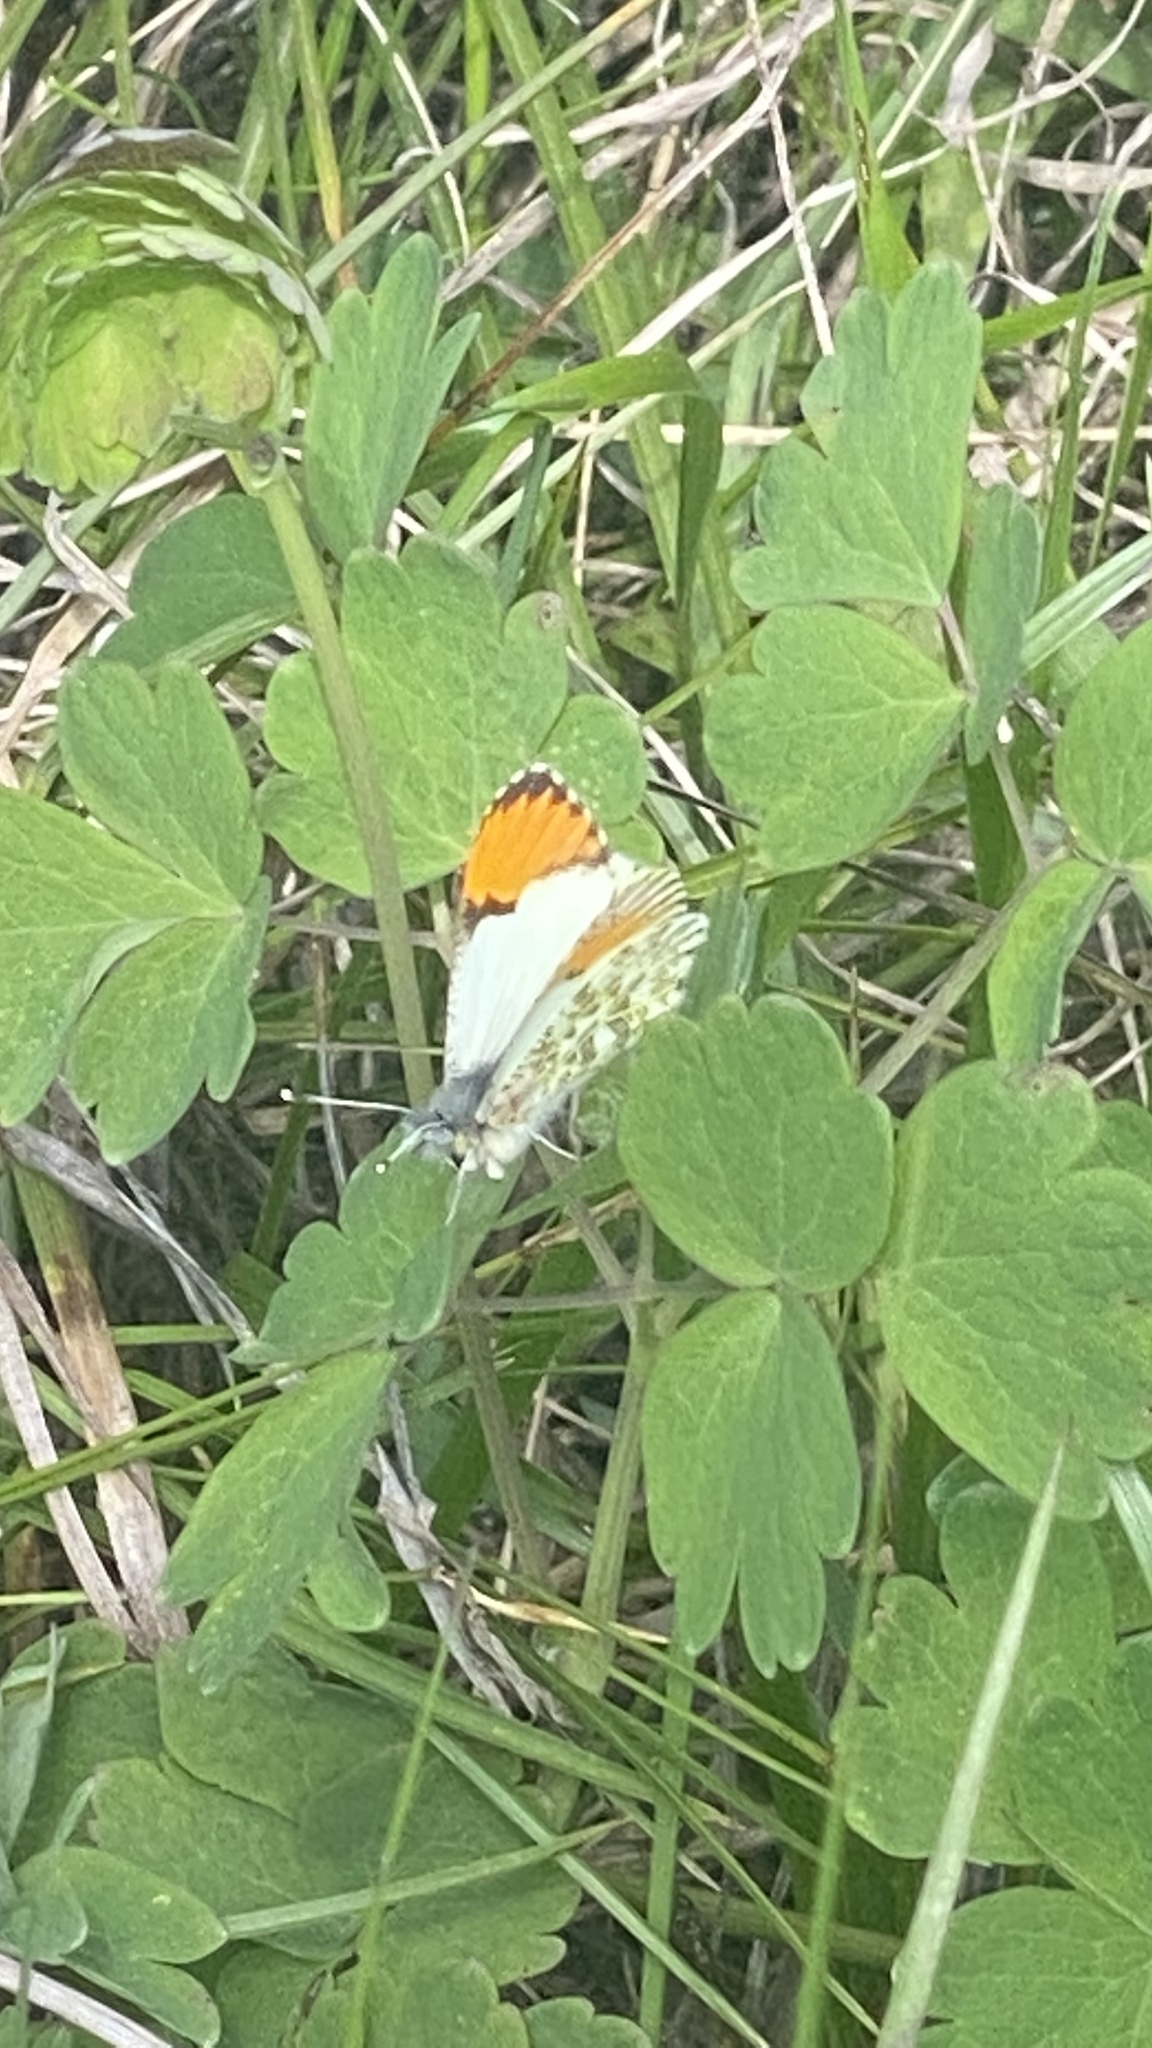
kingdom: Animalia
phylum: Arthropoda
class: Insecta
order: Lepidoptera
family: Pieridae
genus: Anthocharis
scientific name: Anthocharis julia
